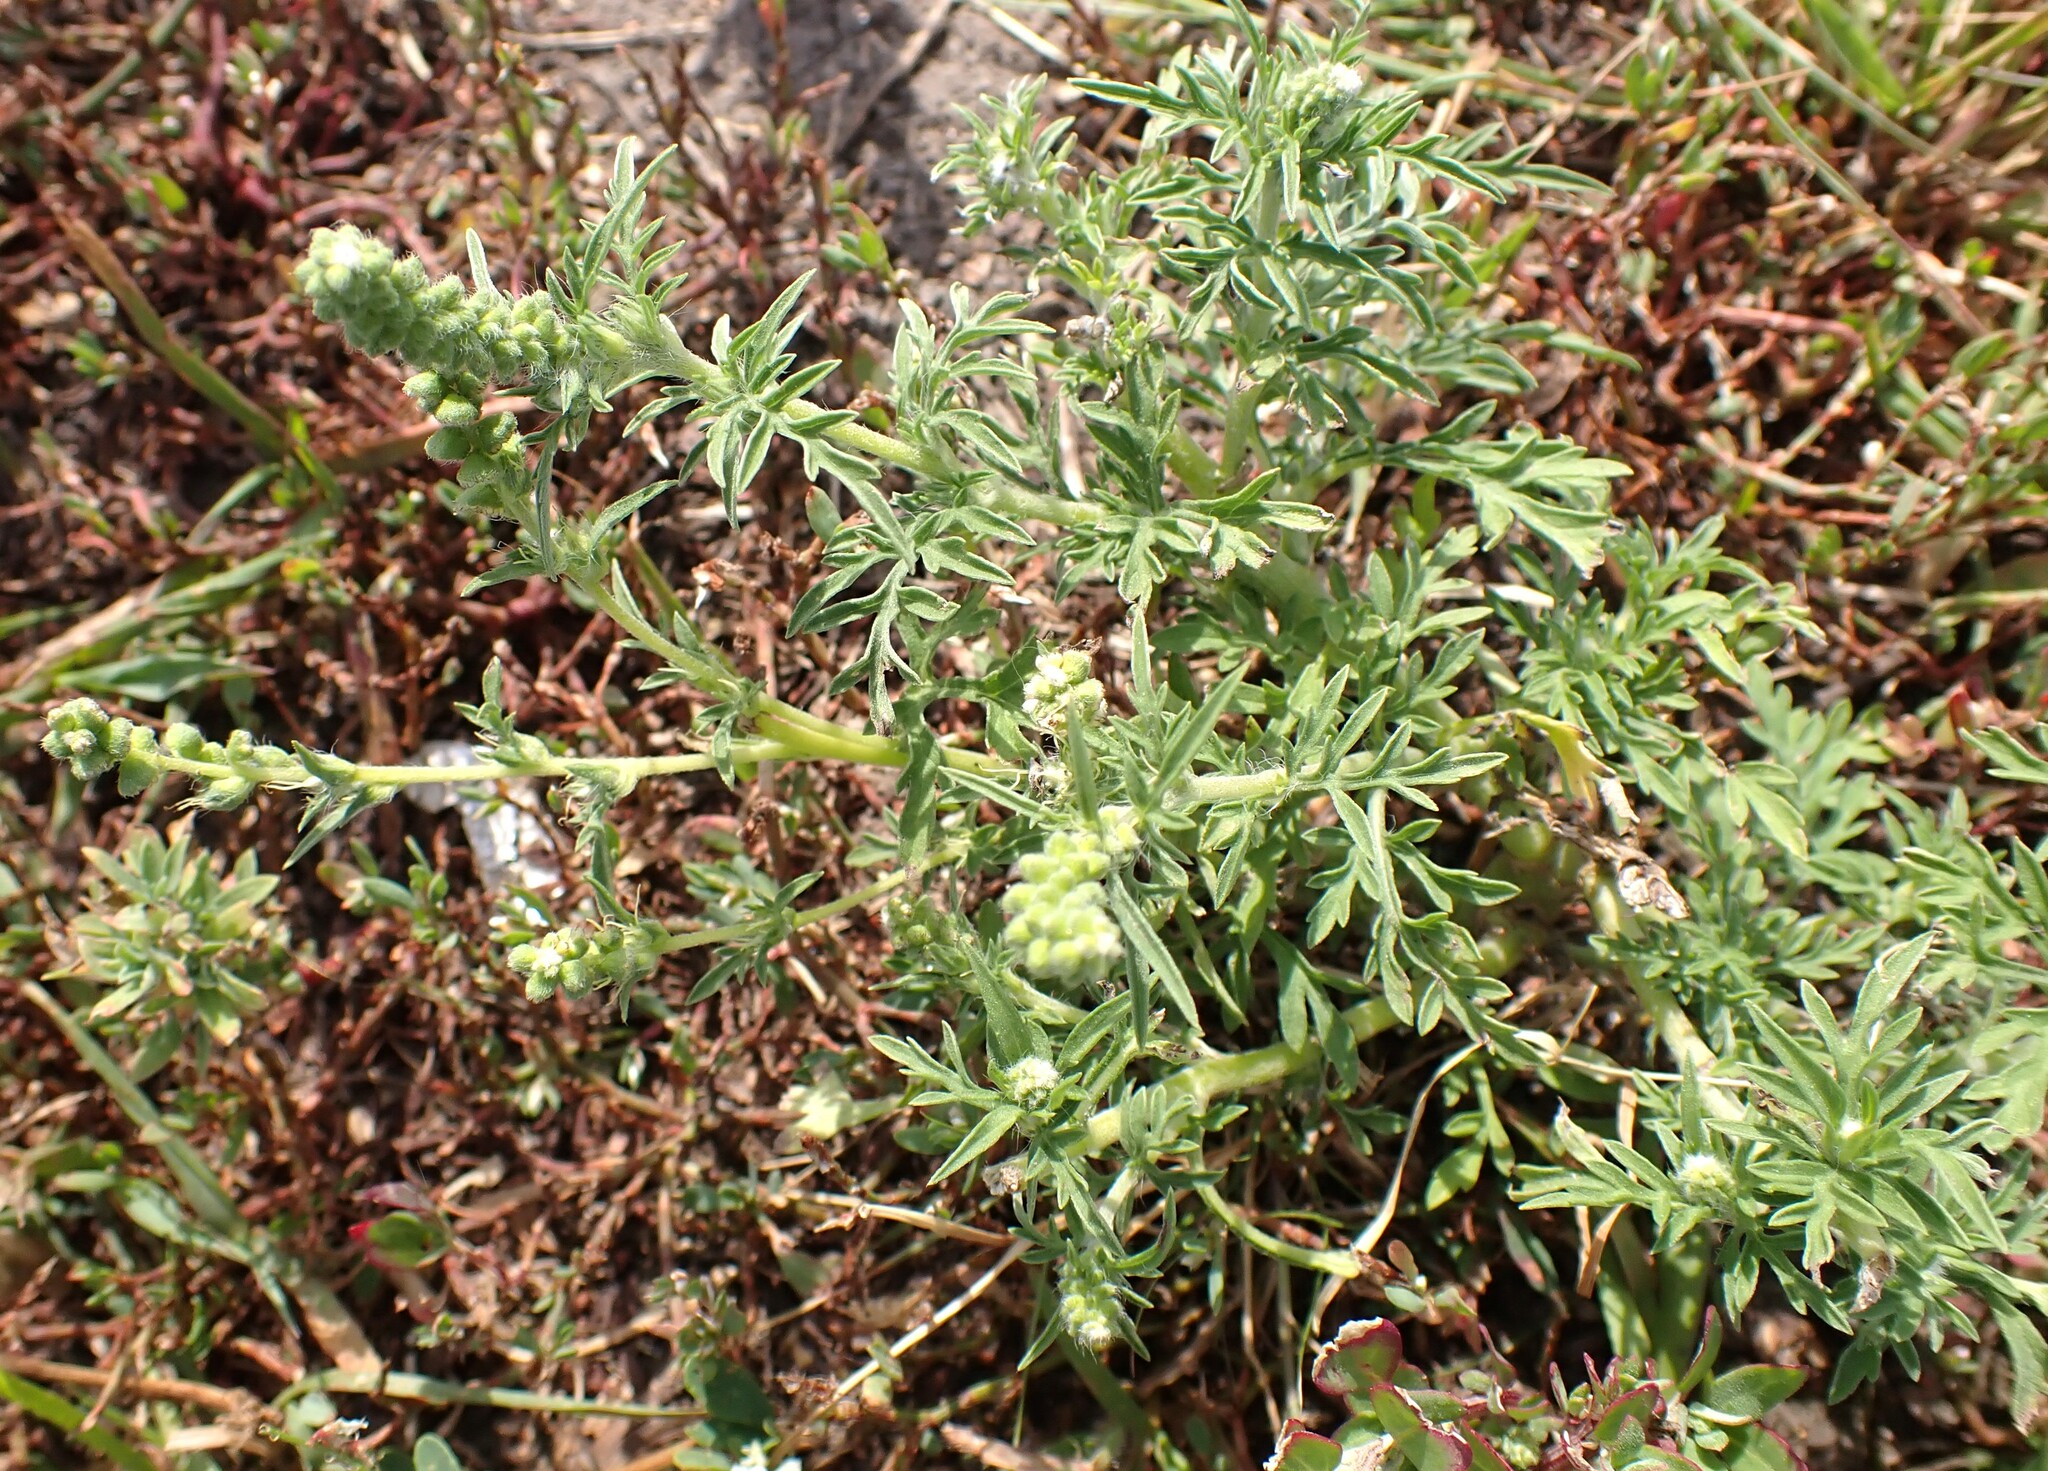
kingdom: Plantae
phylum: Tracheophyta
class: Magnoliopsida
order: Asterales
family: Asteraceae
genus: Ambrosia
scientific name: Ambrosia psilostachya
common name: Perennial ragweed
